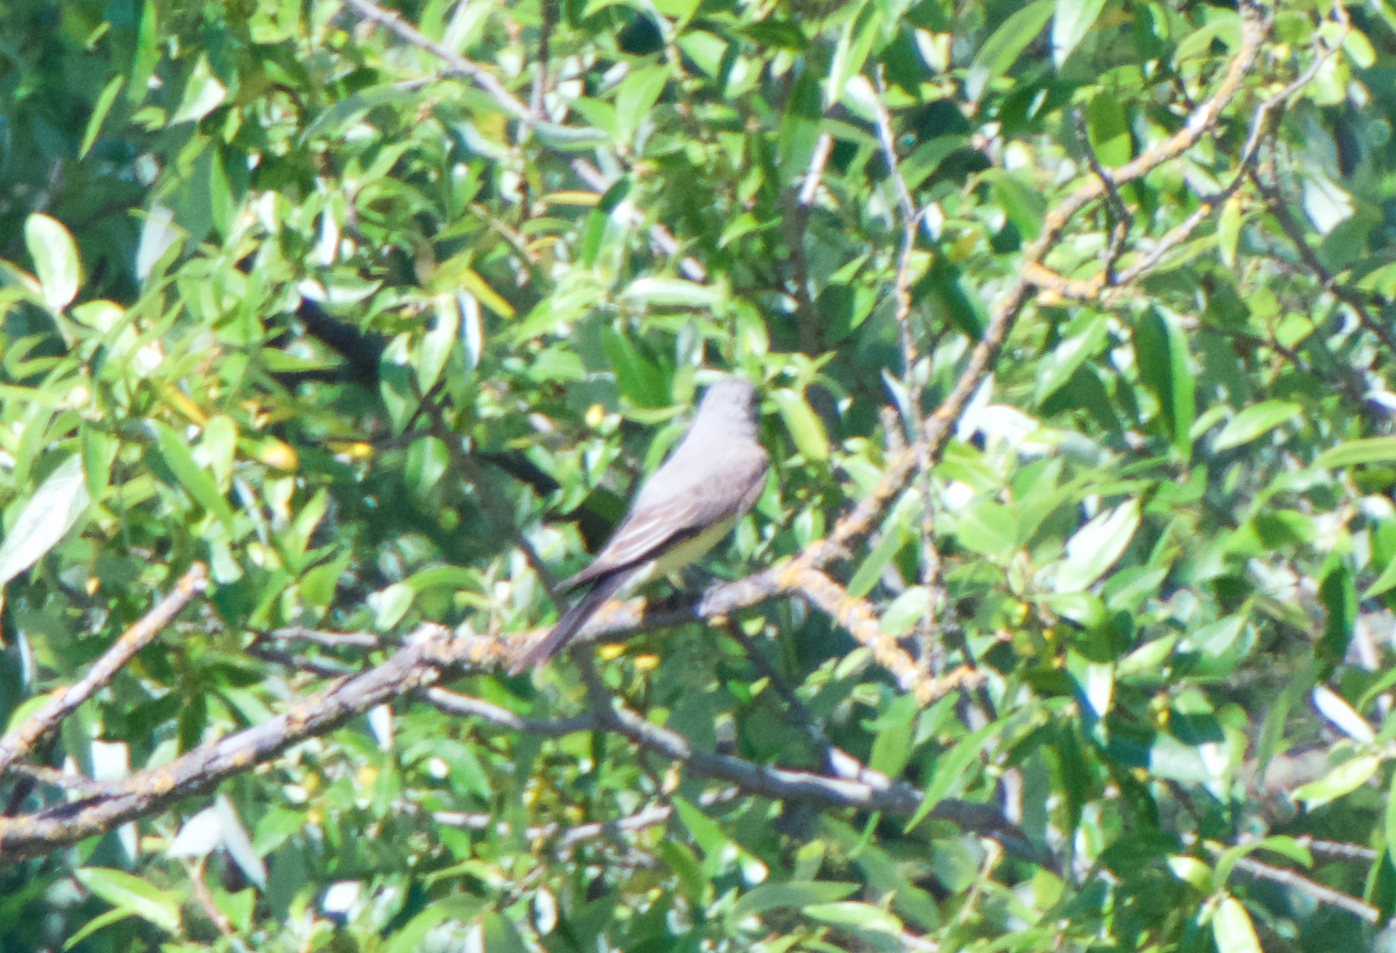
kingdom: Animalia
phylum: Chordata
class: Aves
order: Passeriformes
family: Tyrannidae
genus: Tyrannus
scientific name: Tyrannus verticalis
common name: Western kingbird
